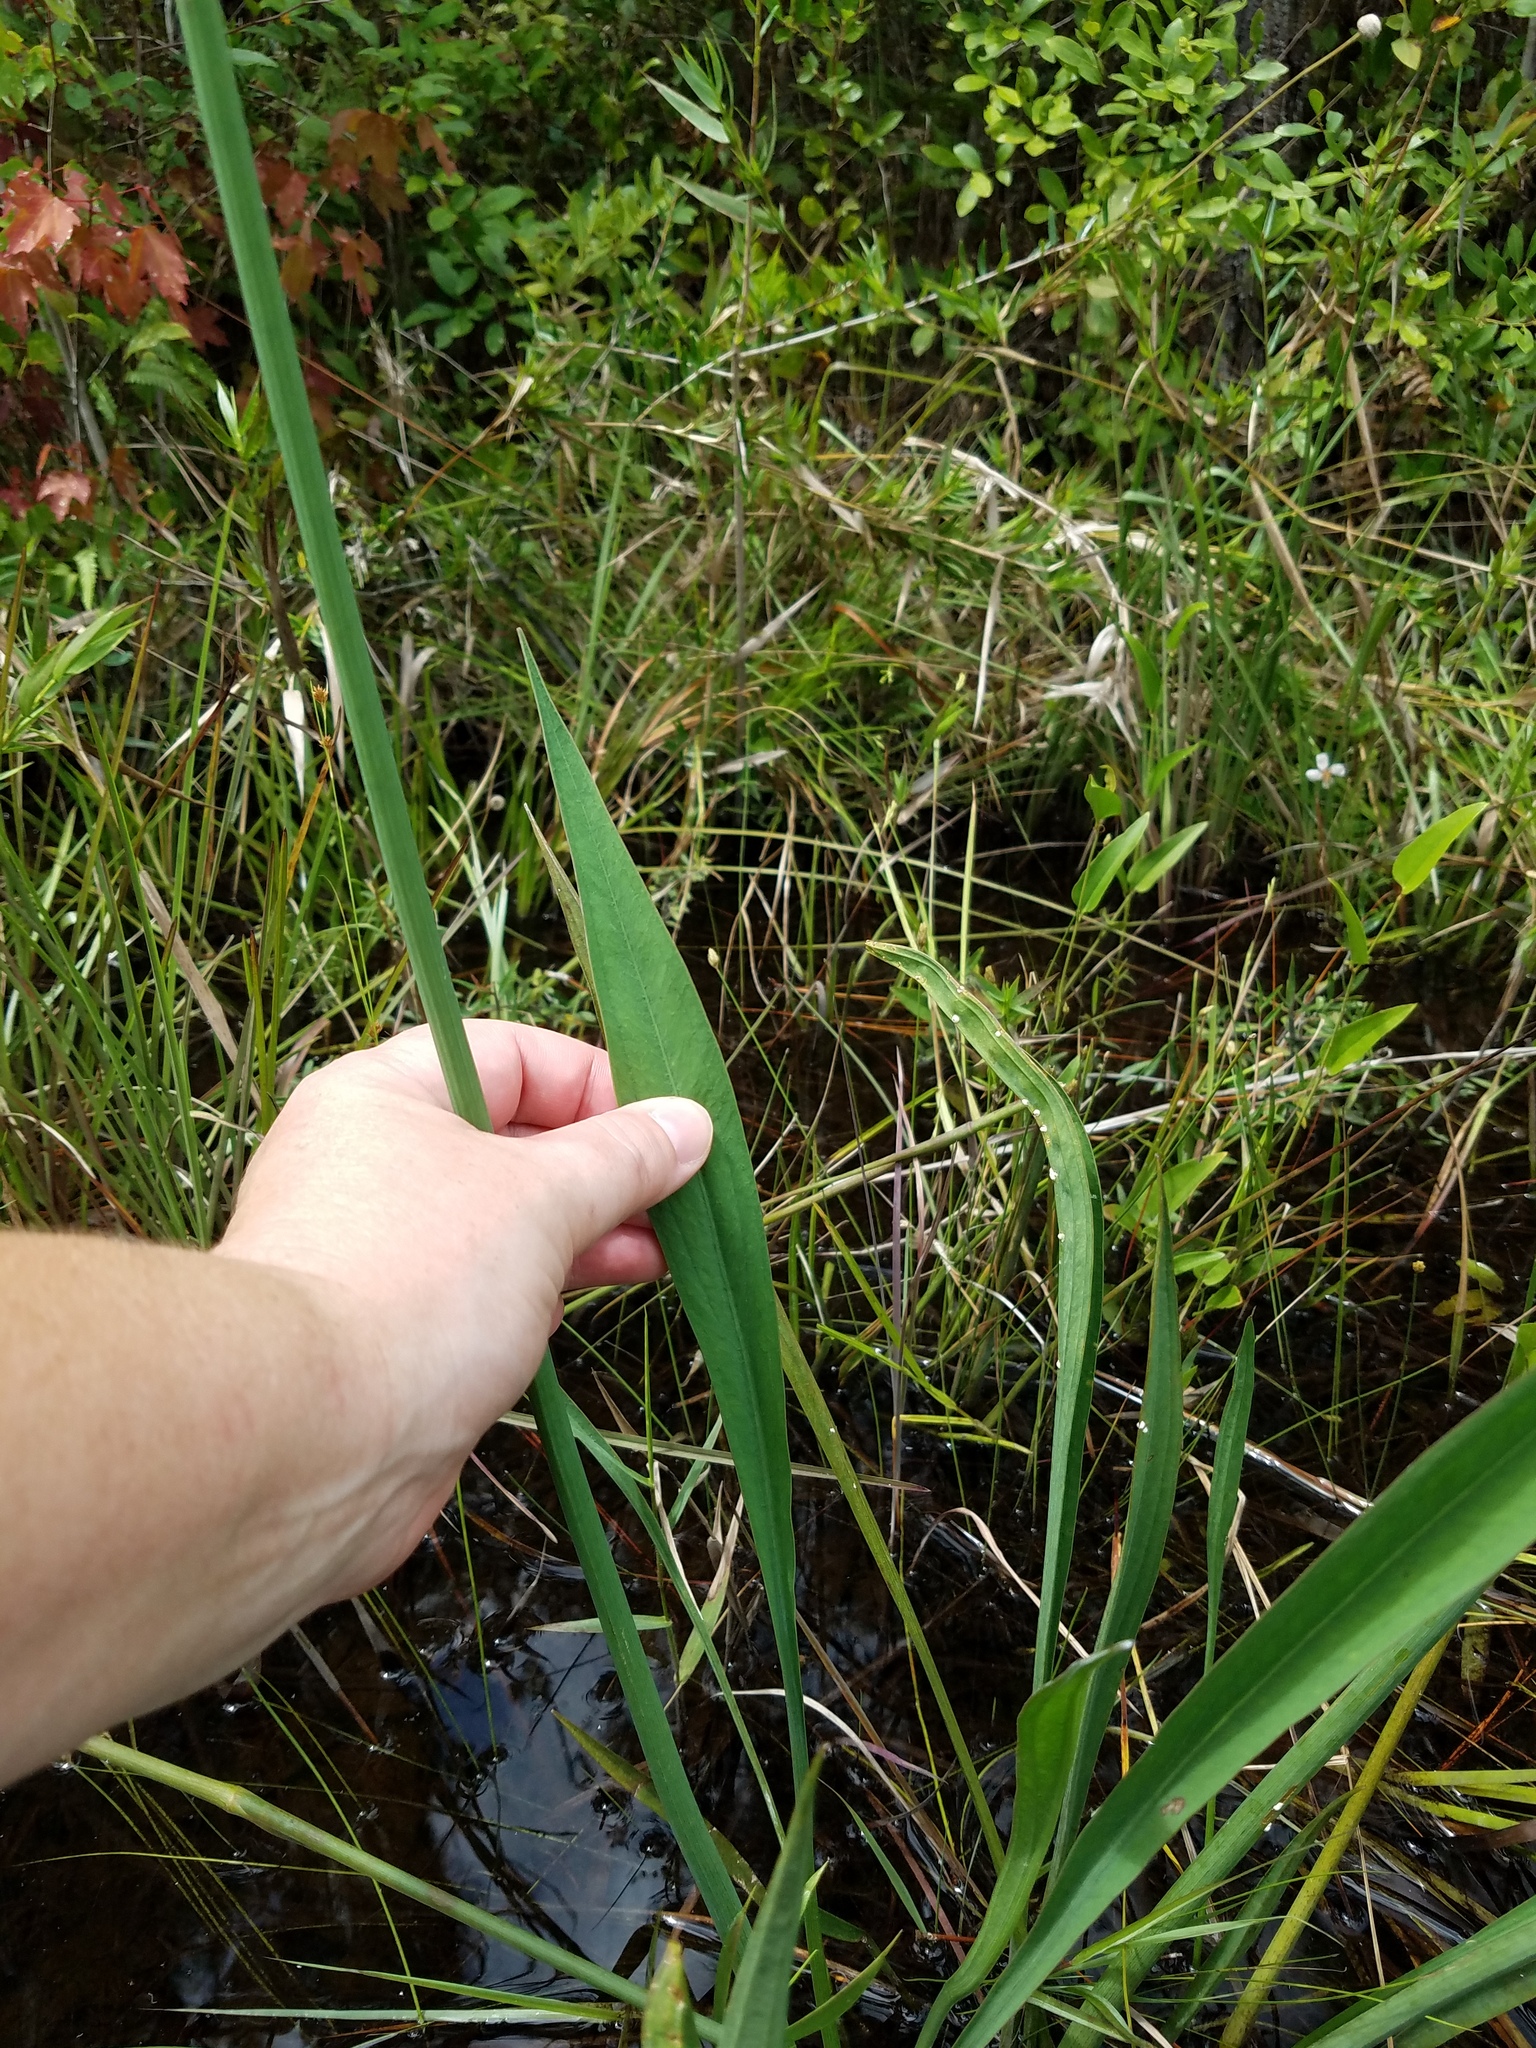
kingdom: Plantae
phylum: Tracheophyta
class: Liliopsida
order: Alismatales
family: Alismataceae
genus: Sagittaria
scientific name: Sagittaria lancifolia
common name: Lance-leaf arrowhead
